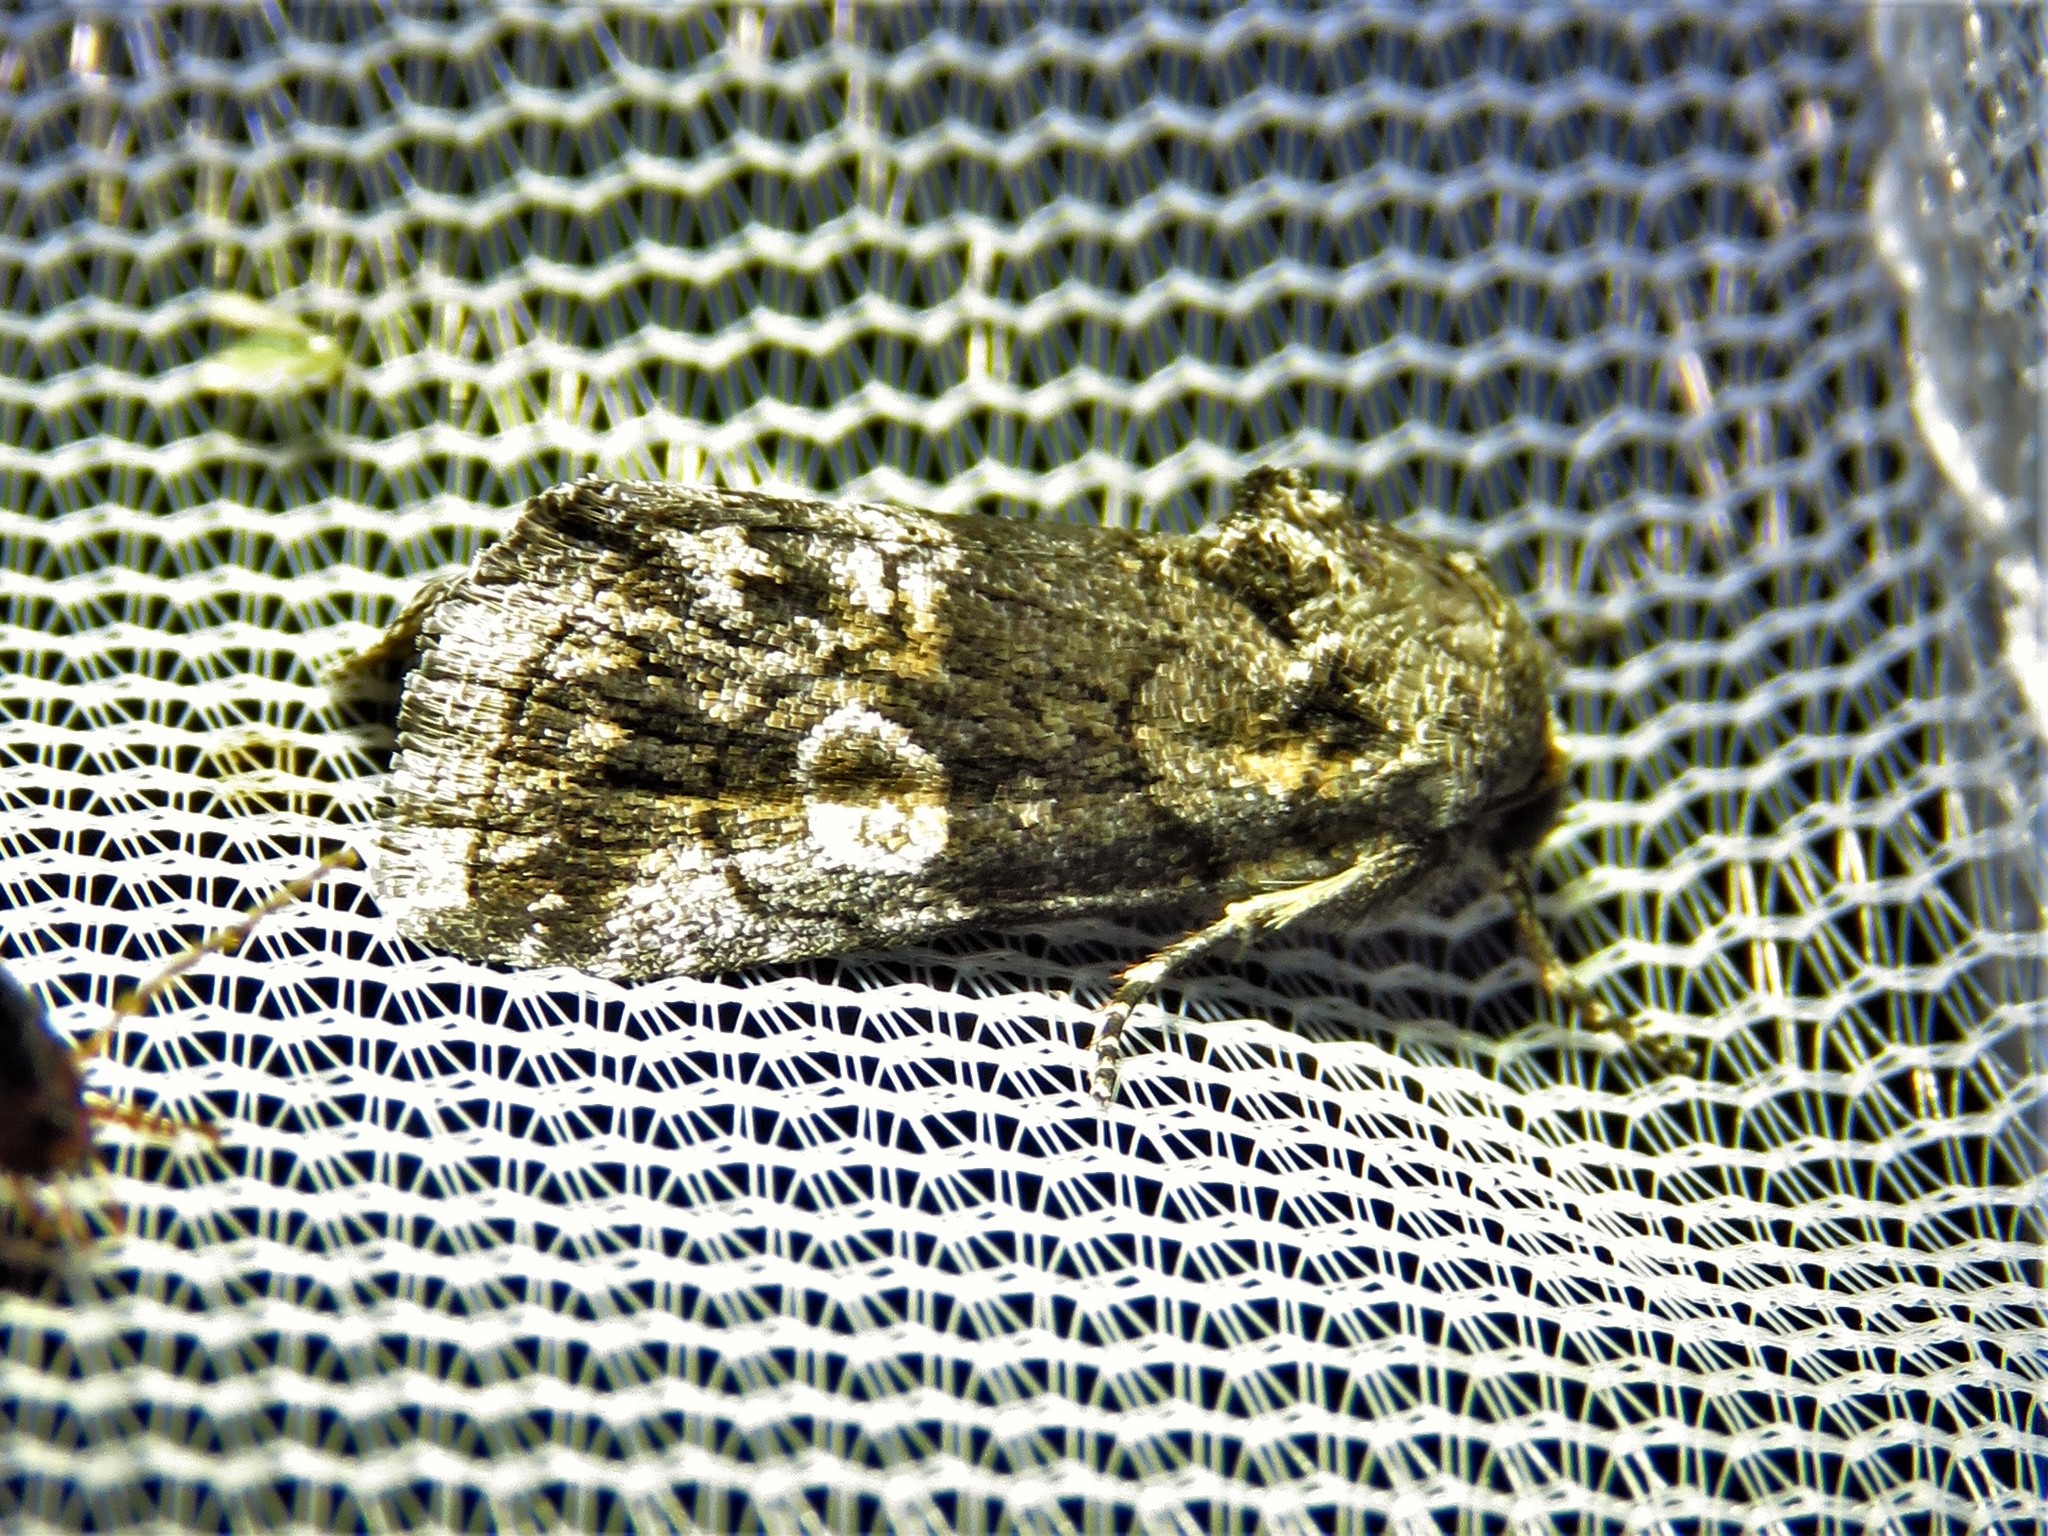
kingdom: Animalia
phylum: Arthropoda
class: Insecta
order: Lepidoptera
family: Noctuidae
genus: Copanarta
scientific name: Copanarta aurea
